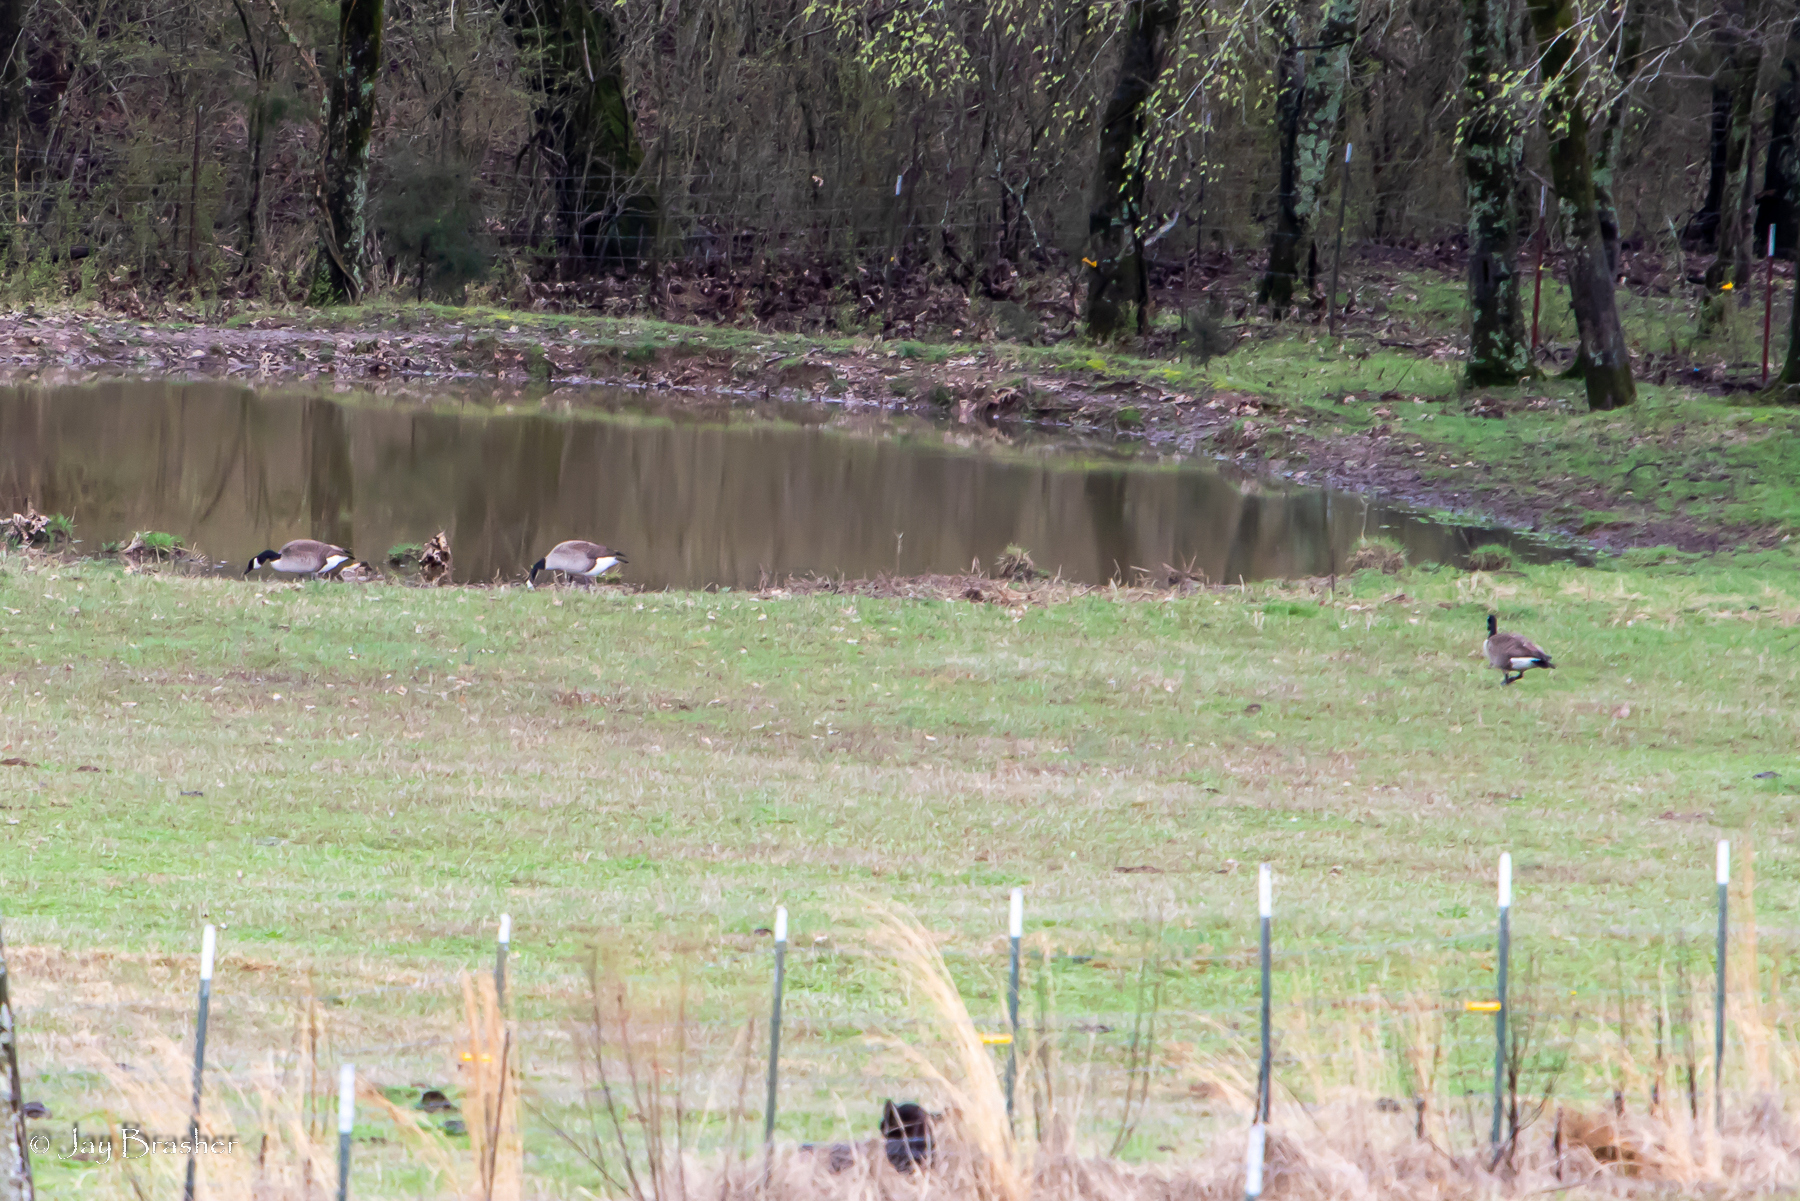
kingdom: Animalia
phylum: Chordata
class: Aves
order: Anseriformes
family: Anatidae
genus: Branta
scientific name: Branta canadensis
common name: Canada goose
